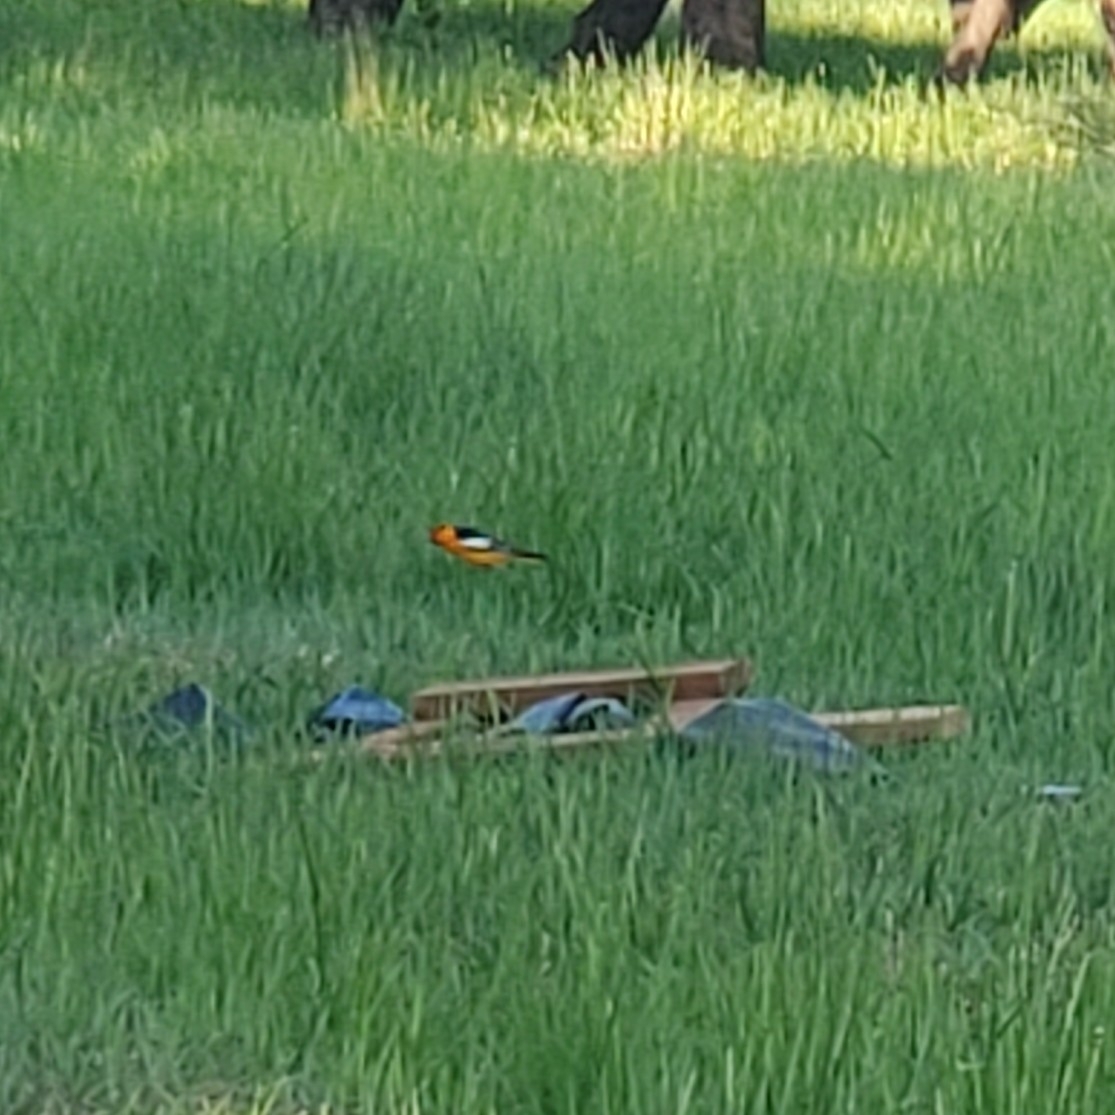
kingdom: Animalia
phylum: Chordata
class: Aves
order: Passeriformes
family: Icteridae
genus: Icterus
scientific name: Icterus bullockii
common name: Bullock's oriole
